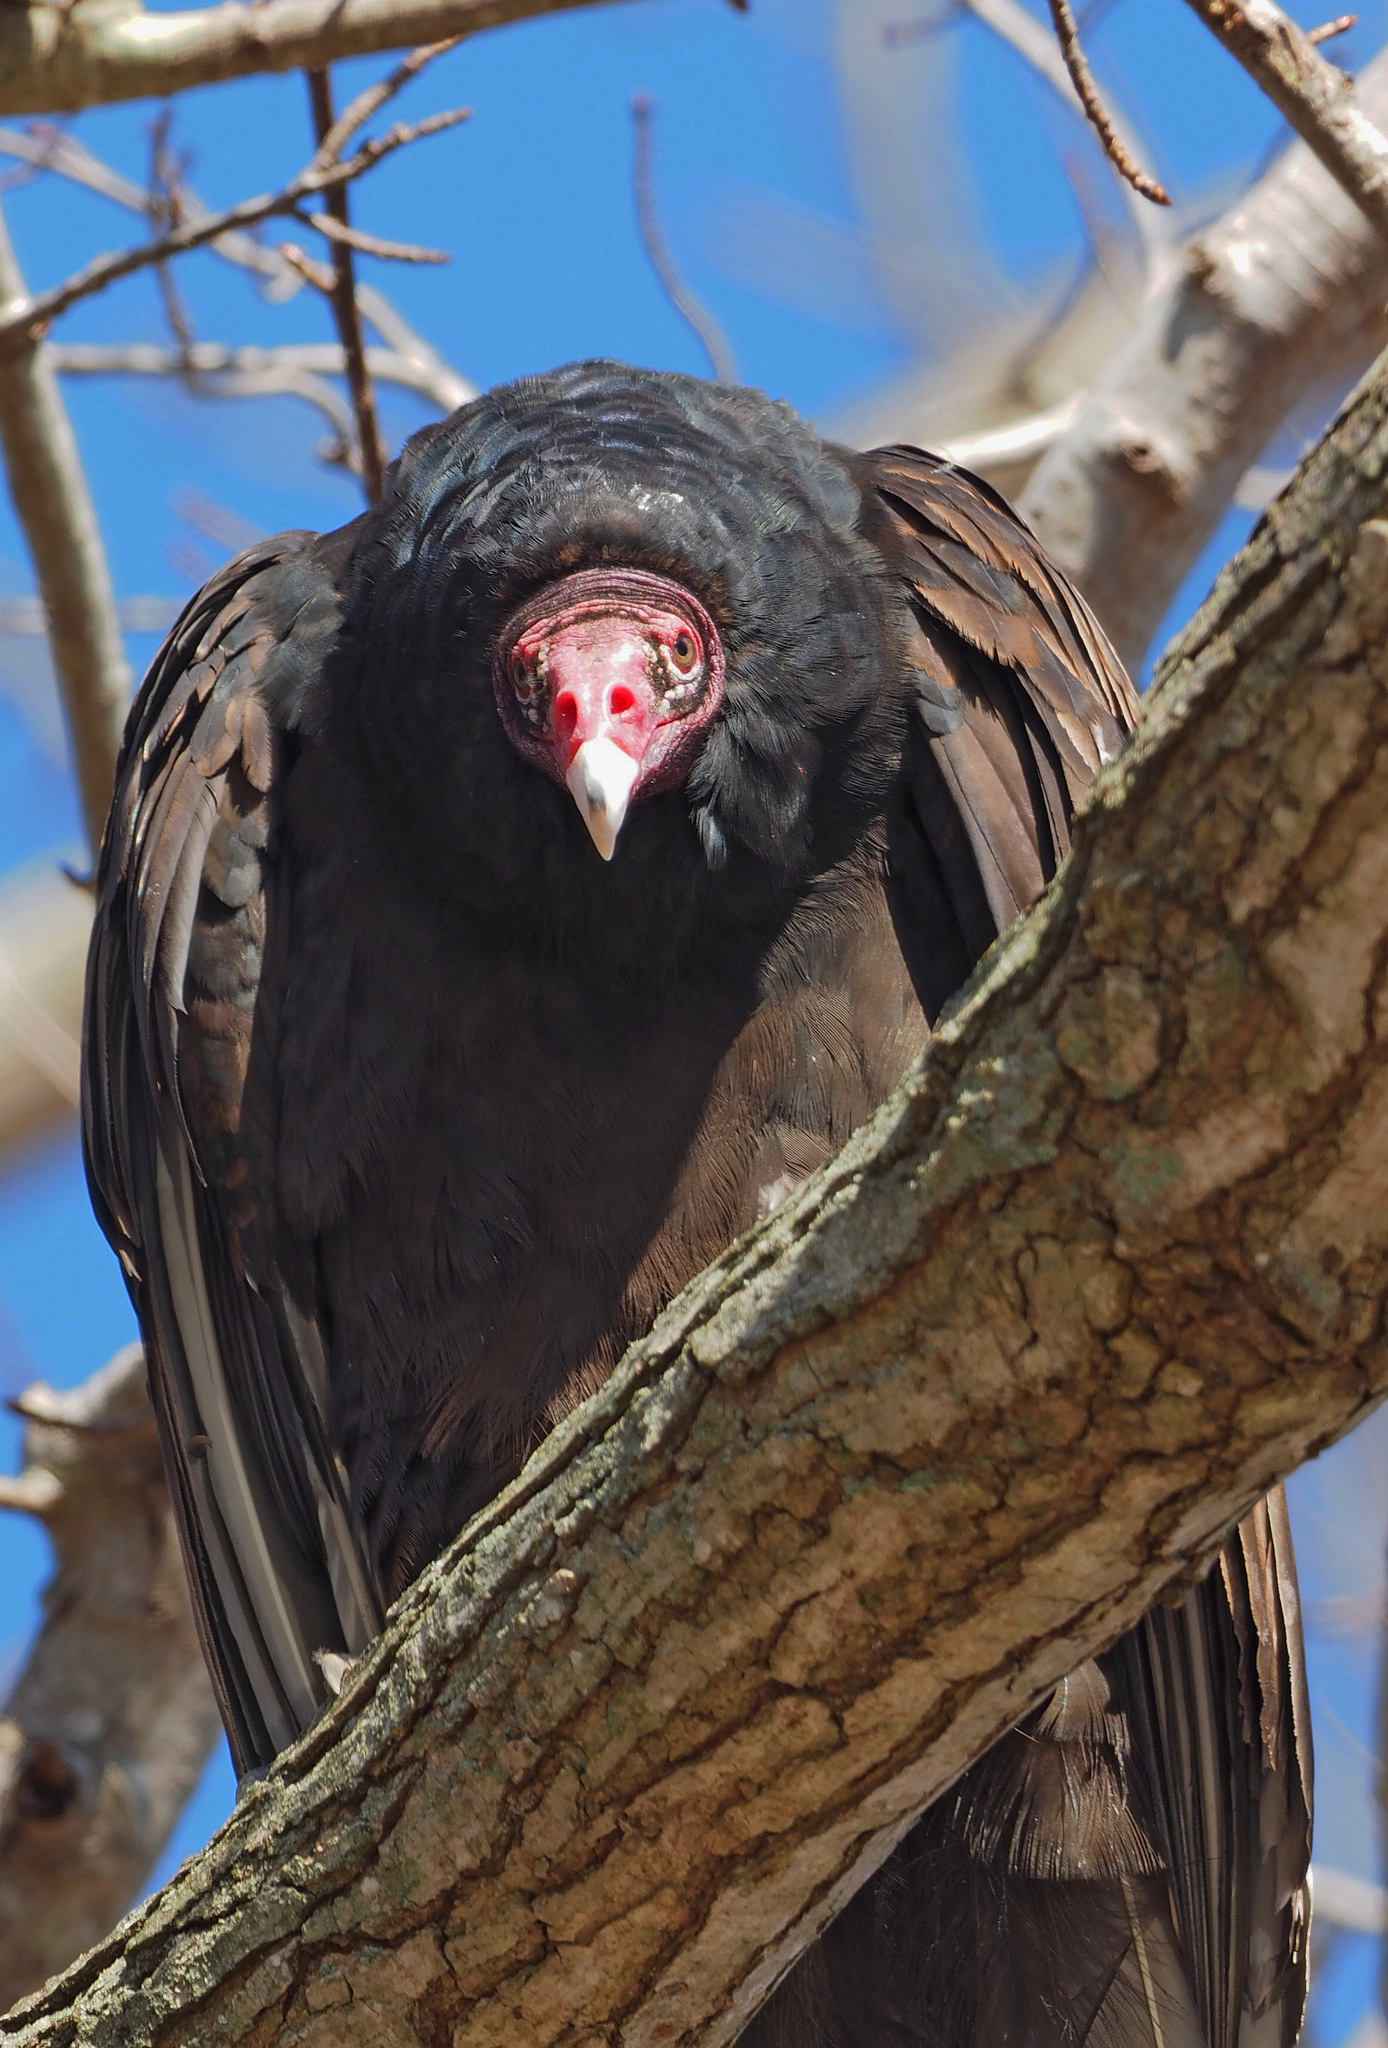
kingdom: Animalia
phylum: Chordata
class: Aves
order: Accipitriformes
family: Cathartidae
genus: Cathartes
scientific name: Cathartes aura
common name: Turkey vulture
